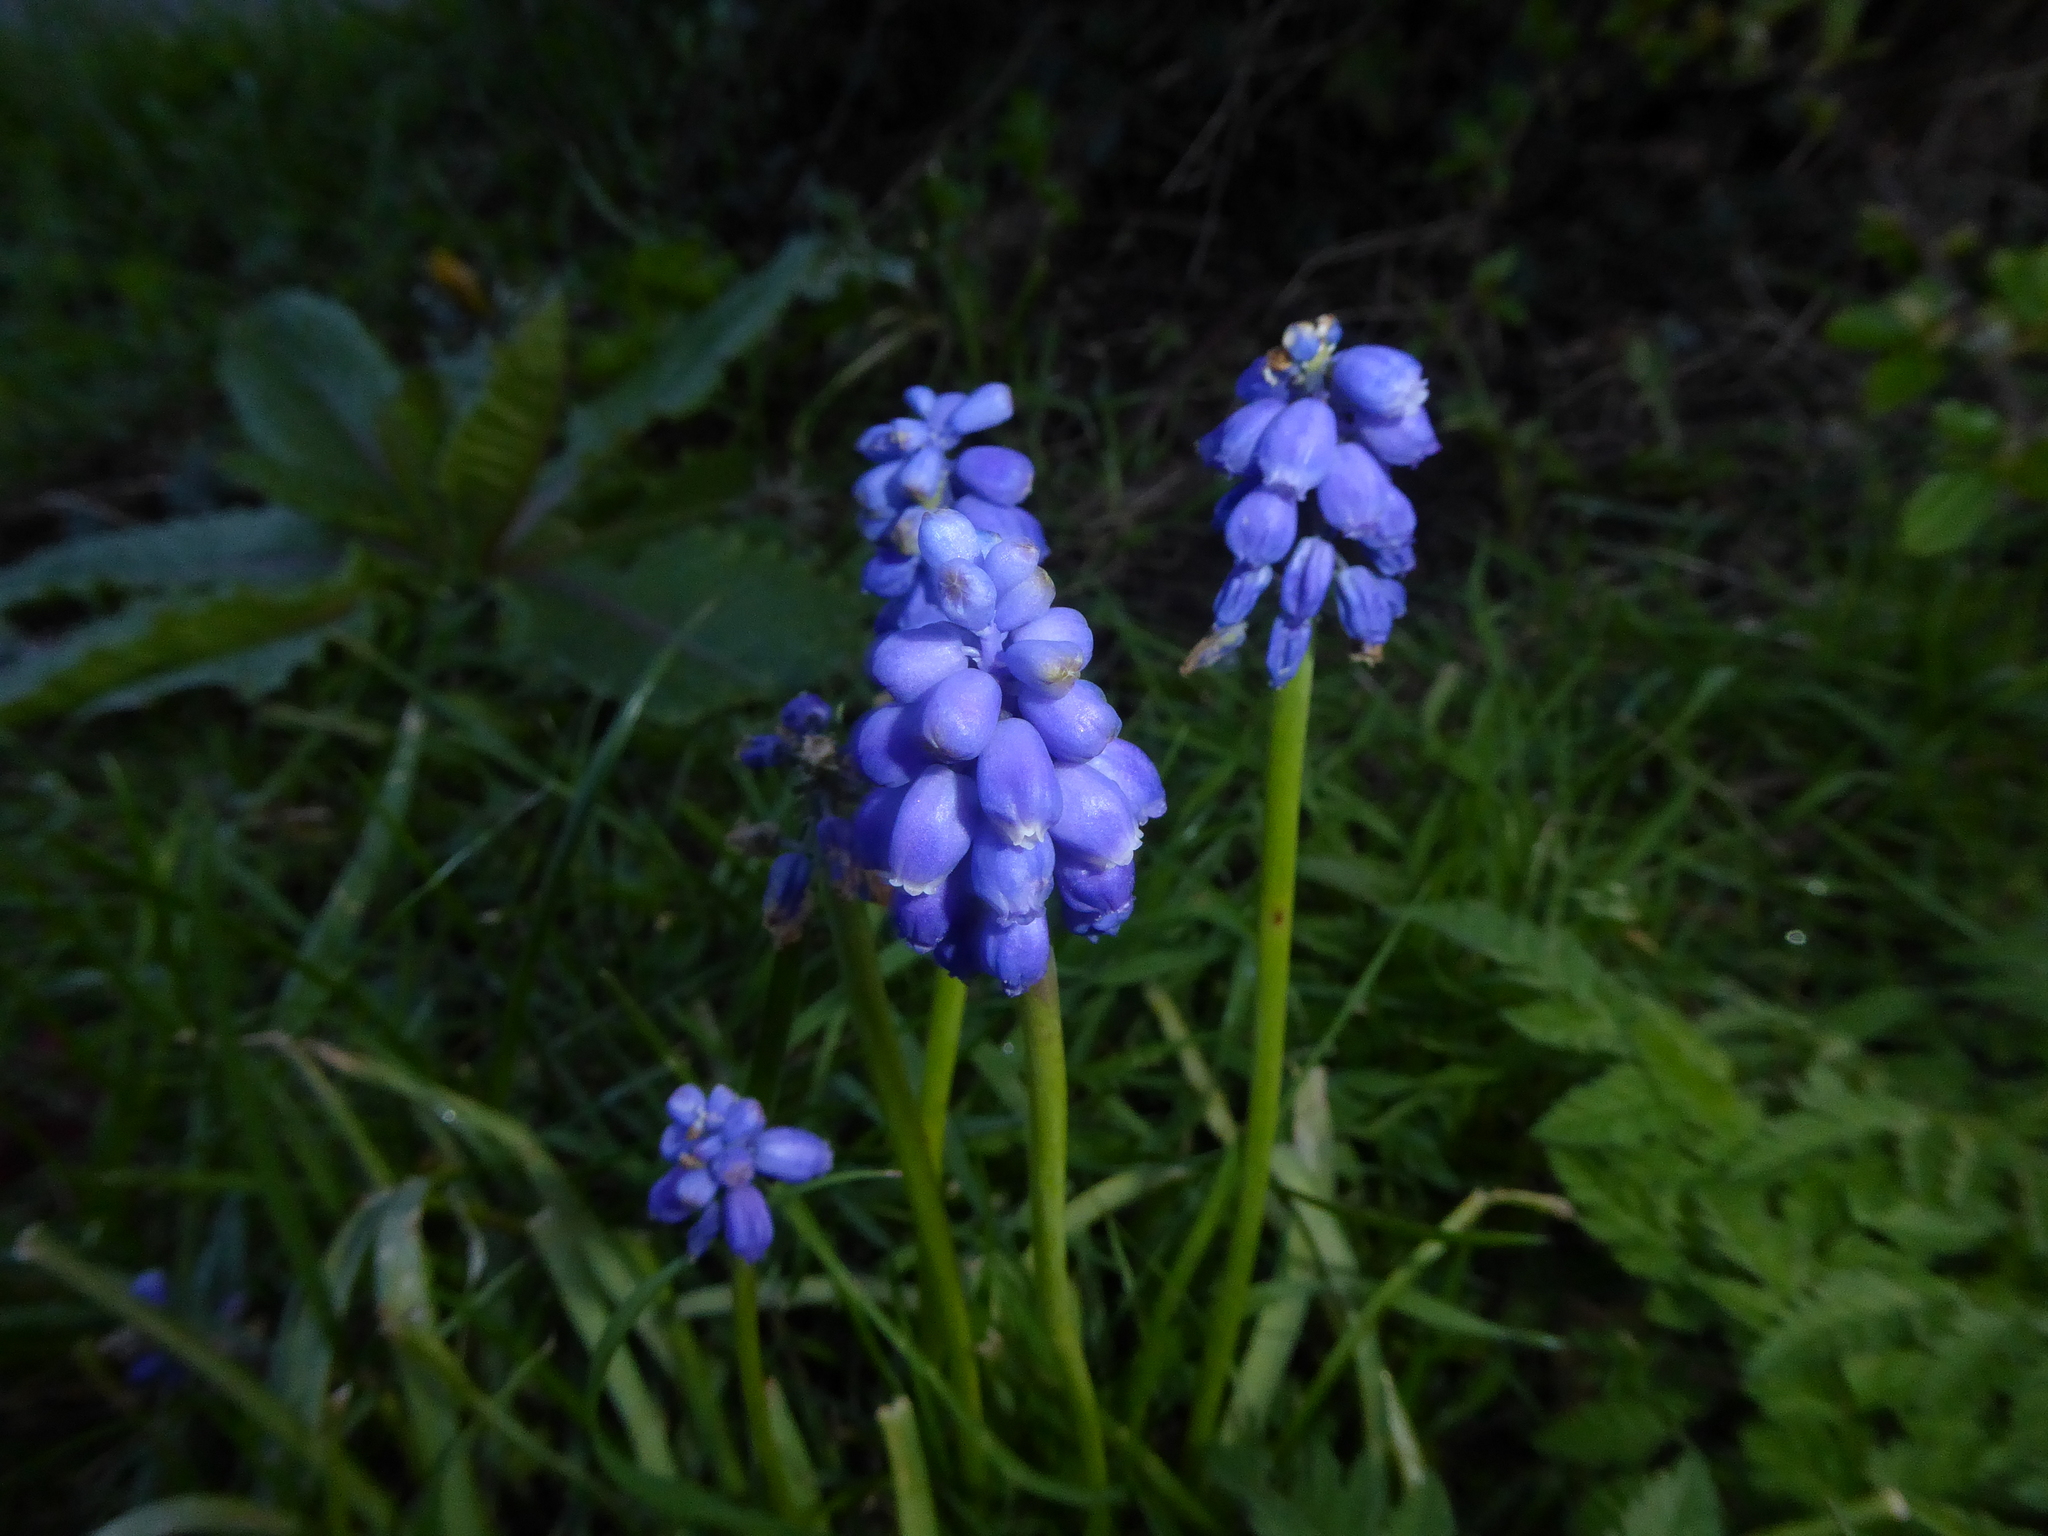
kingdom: Plantae
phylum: Tracheophyta
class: Liliopsida
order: Asparagales
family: Asparagaceae
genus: Muscari
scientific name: Muscari armeniacum
